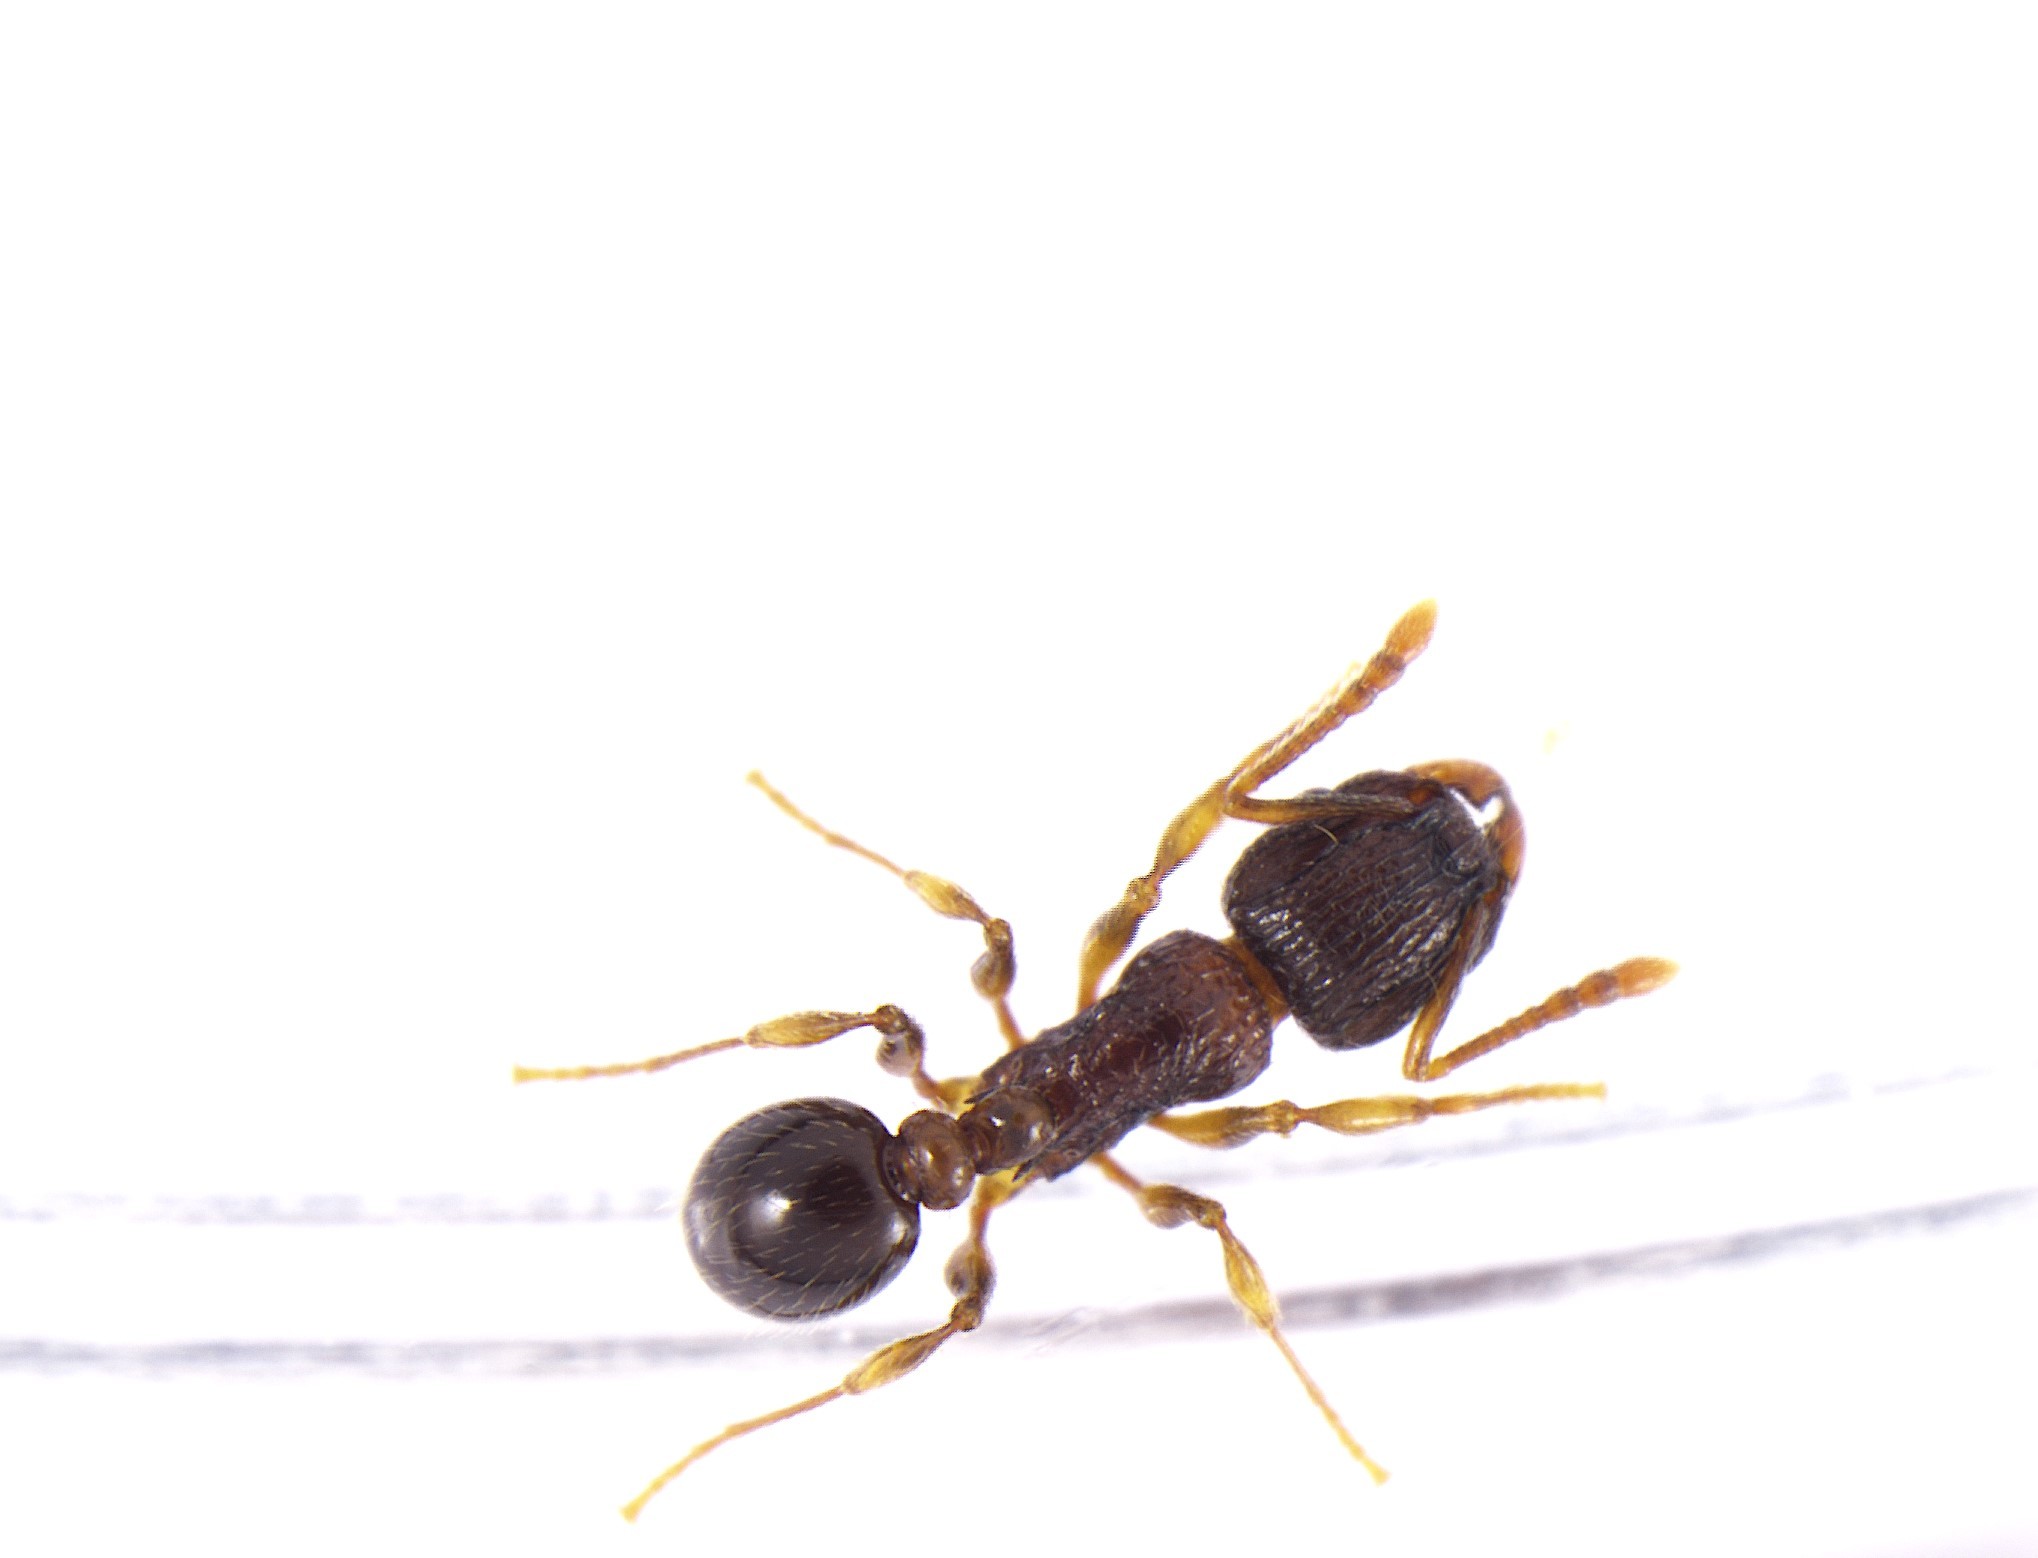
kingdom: Animalia
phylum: Arthropoda
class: Insecta
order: Hymenoptera
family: Formicidae
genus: Tetramorium
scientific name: Tetramorium grassii
